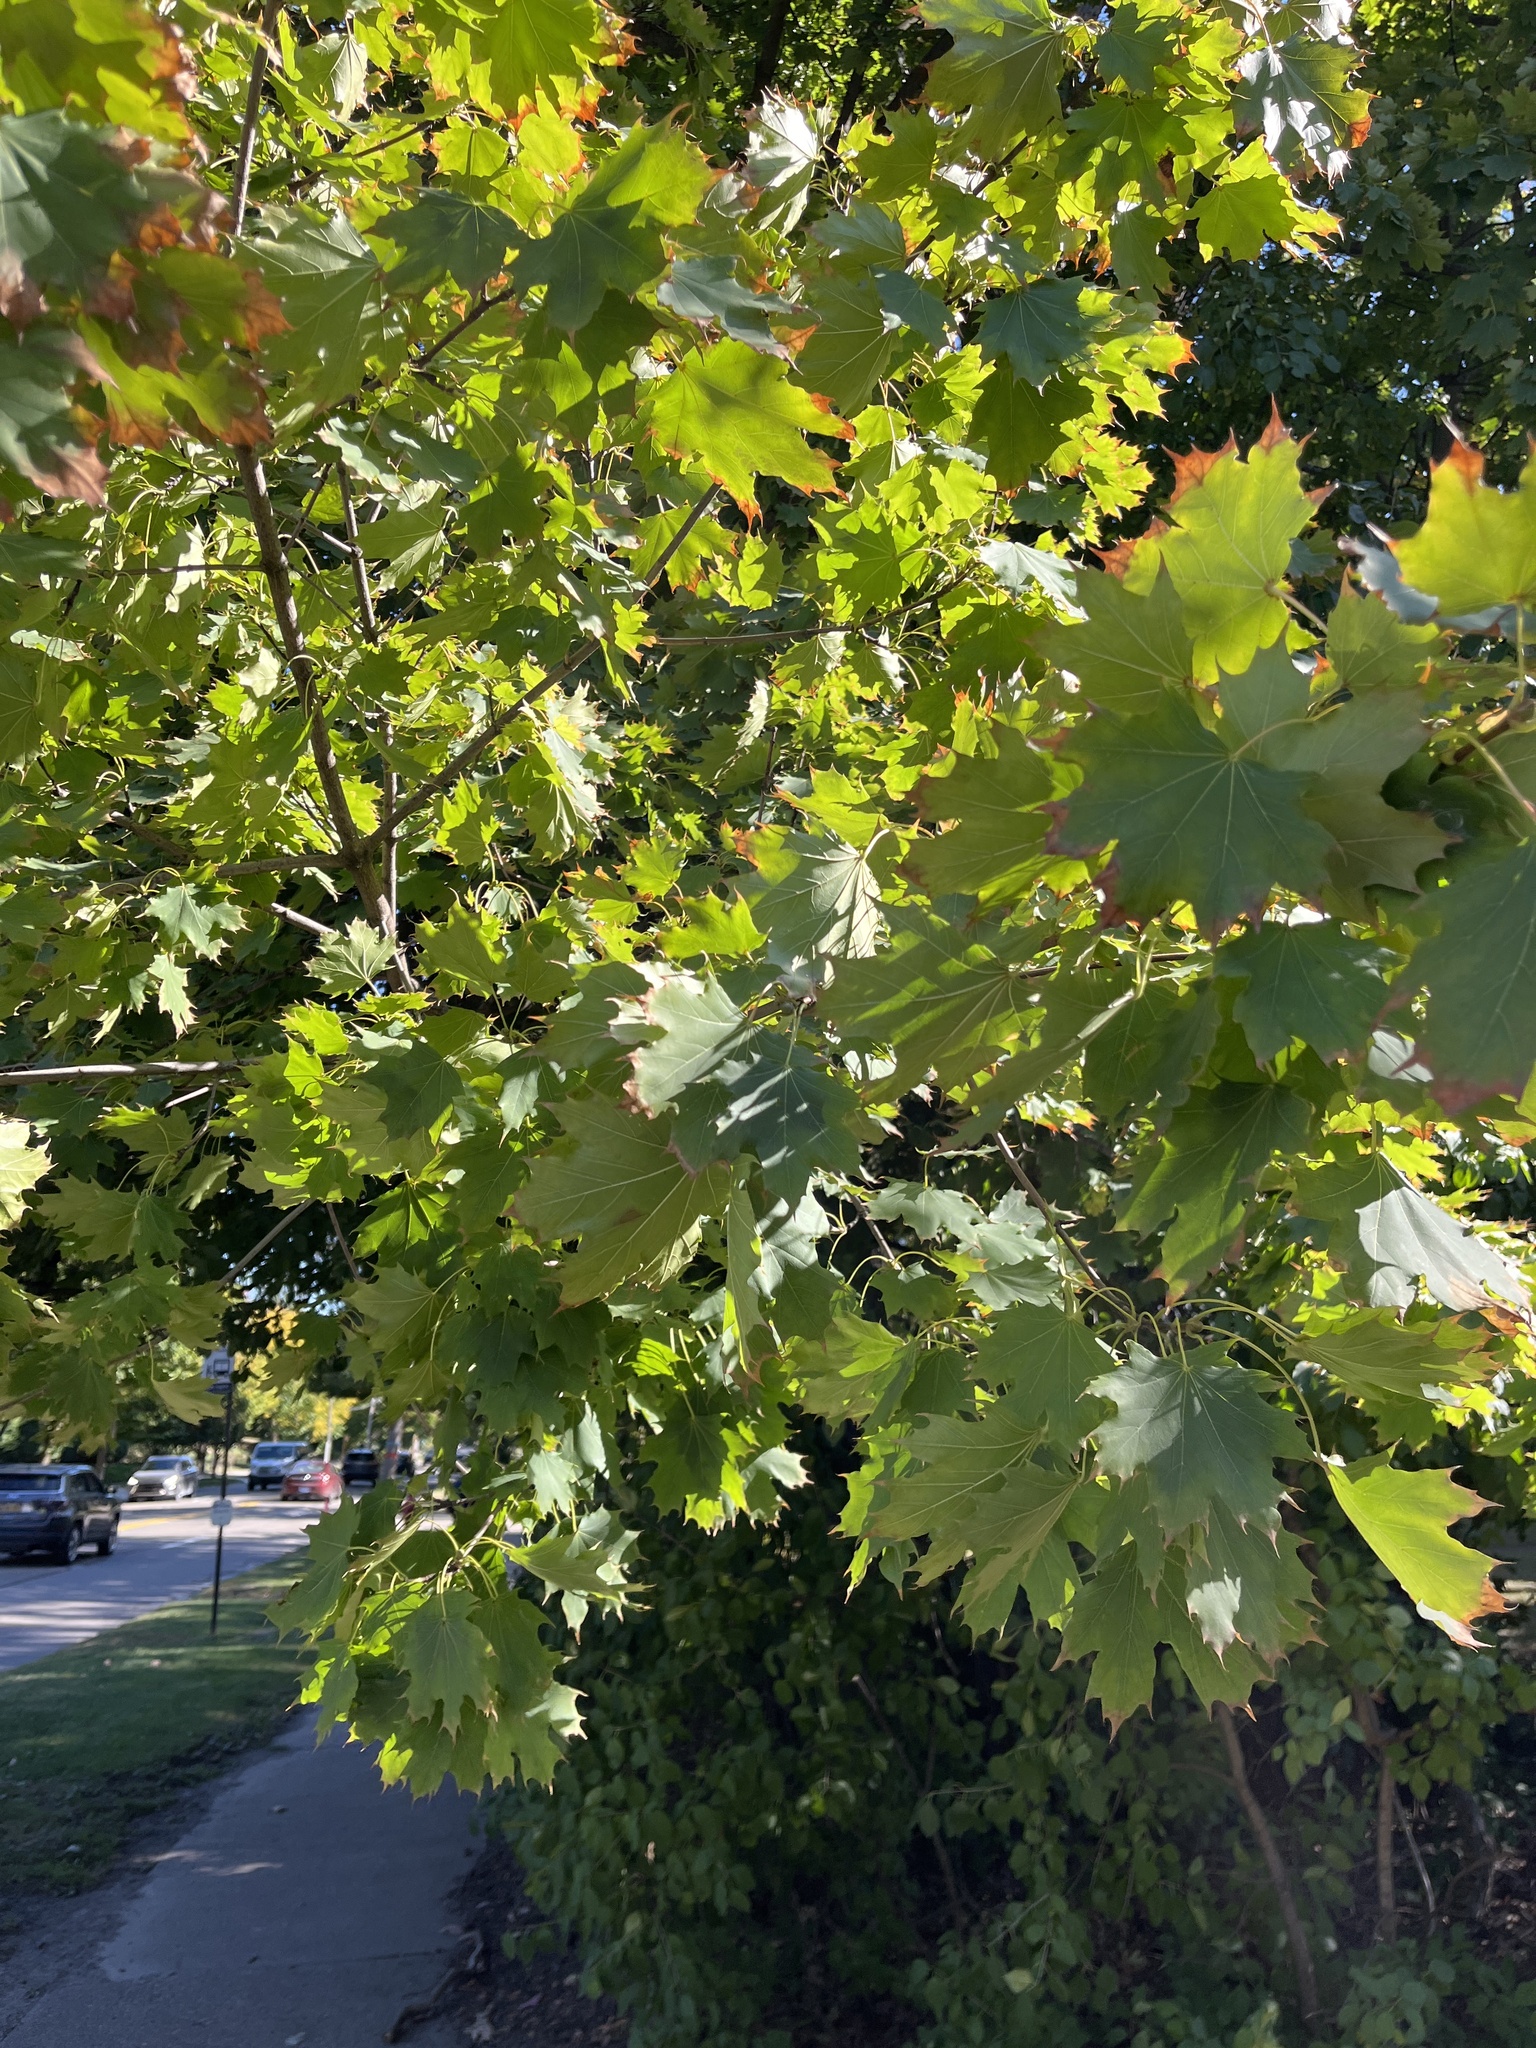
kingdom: Plantae
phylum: Tracheophyta
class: Magnoliopsida
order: Sapindales
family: Sapindaceae
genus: Acer
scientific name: Acer platanoides
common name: Norway maple
